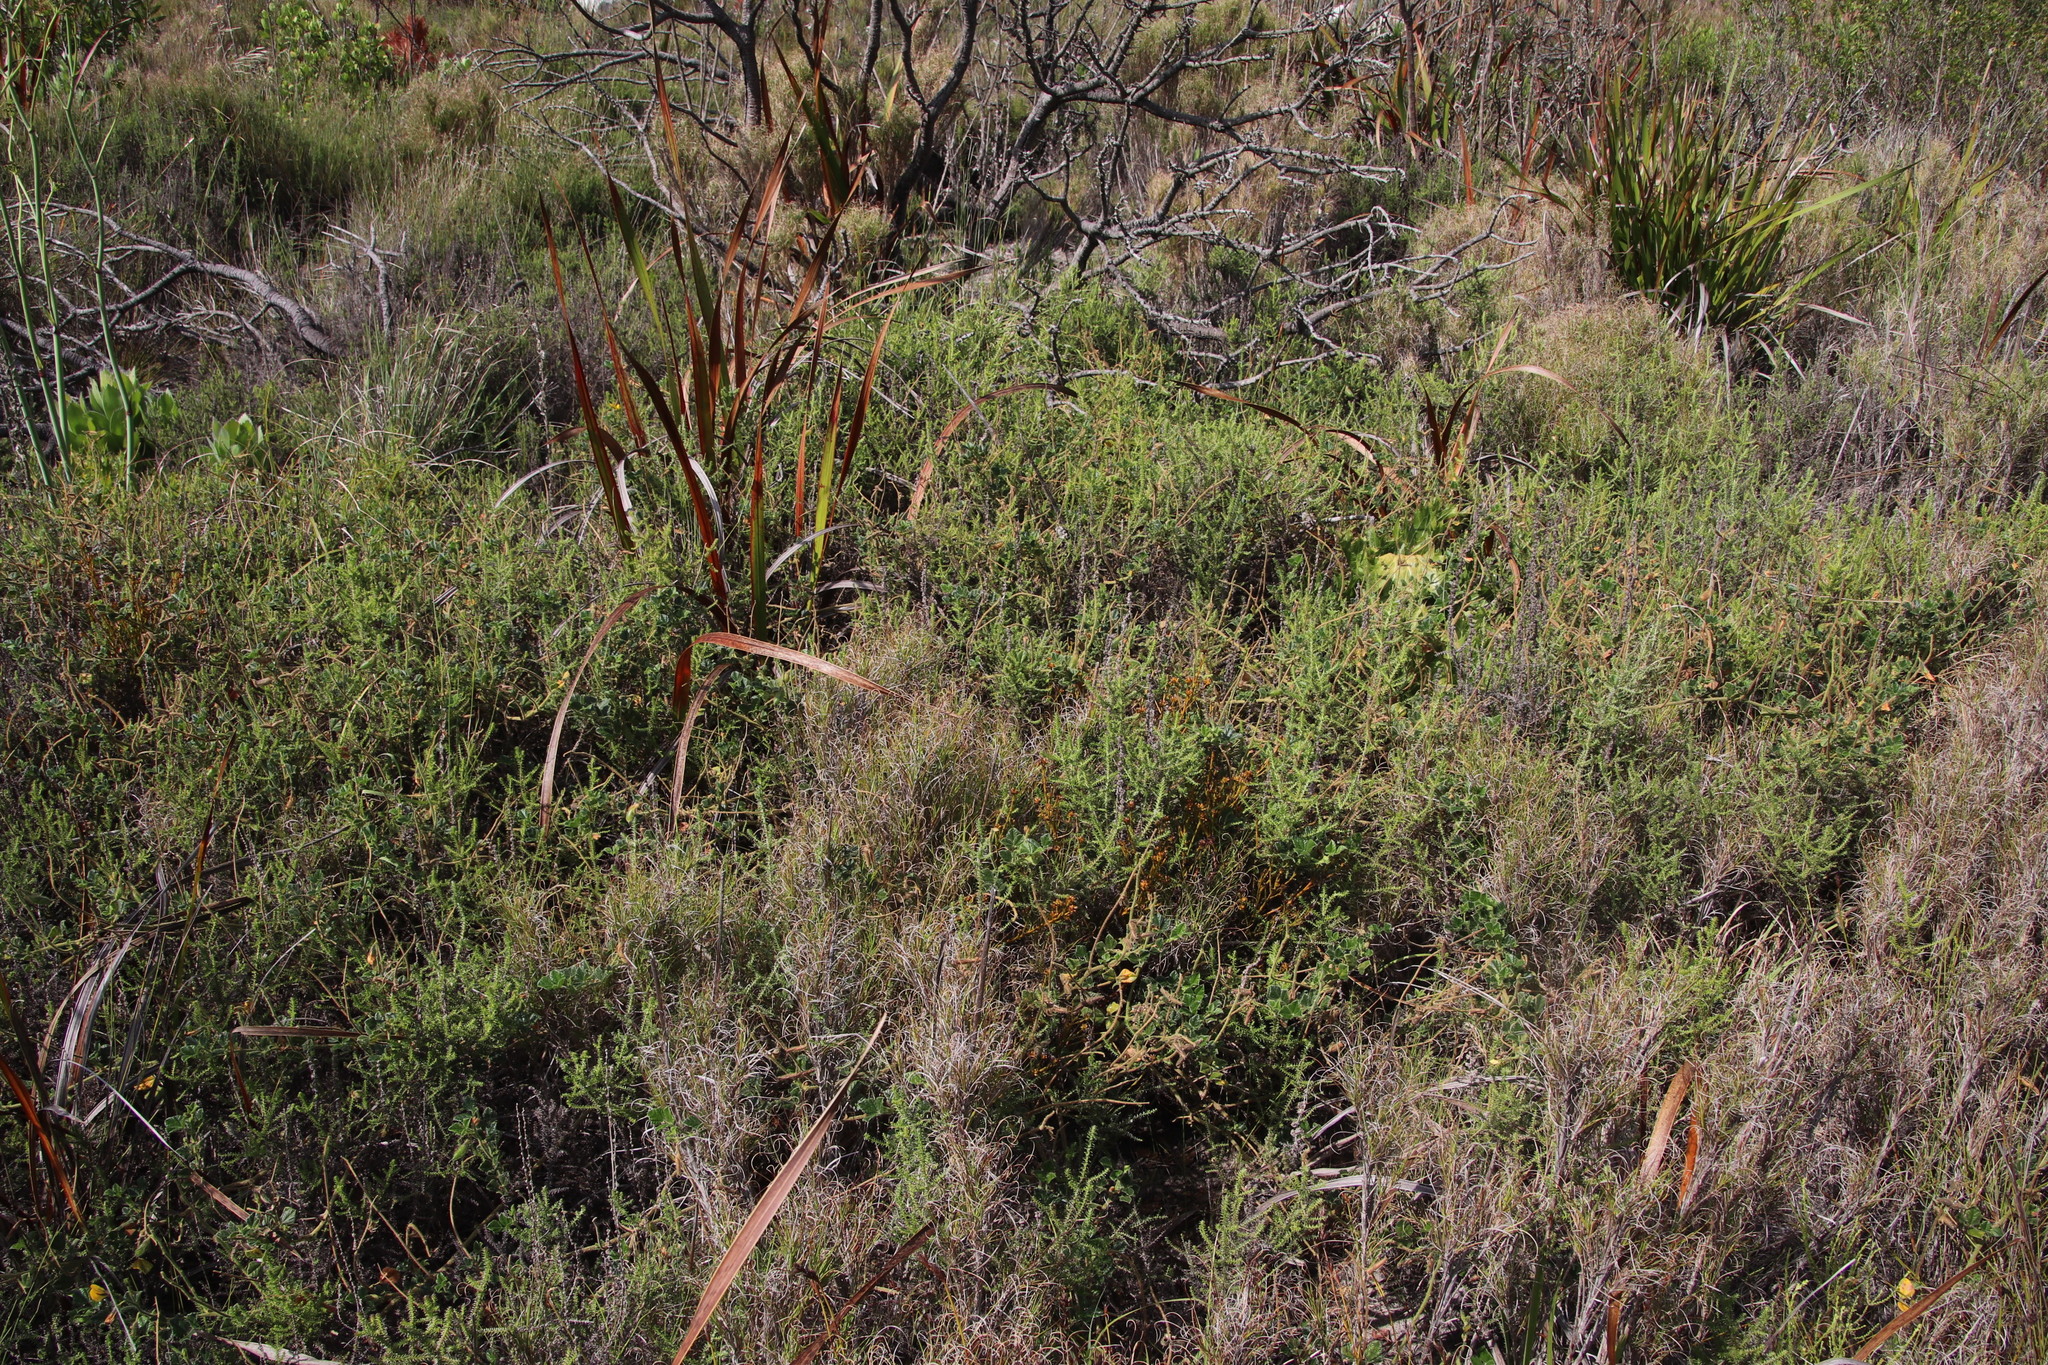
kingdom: Plantae
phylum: Tracheophyta
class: Magnoliopsida
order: Fabales
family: Fabaceae
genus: Bolusafra
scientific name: Bolusafra bituminosa
